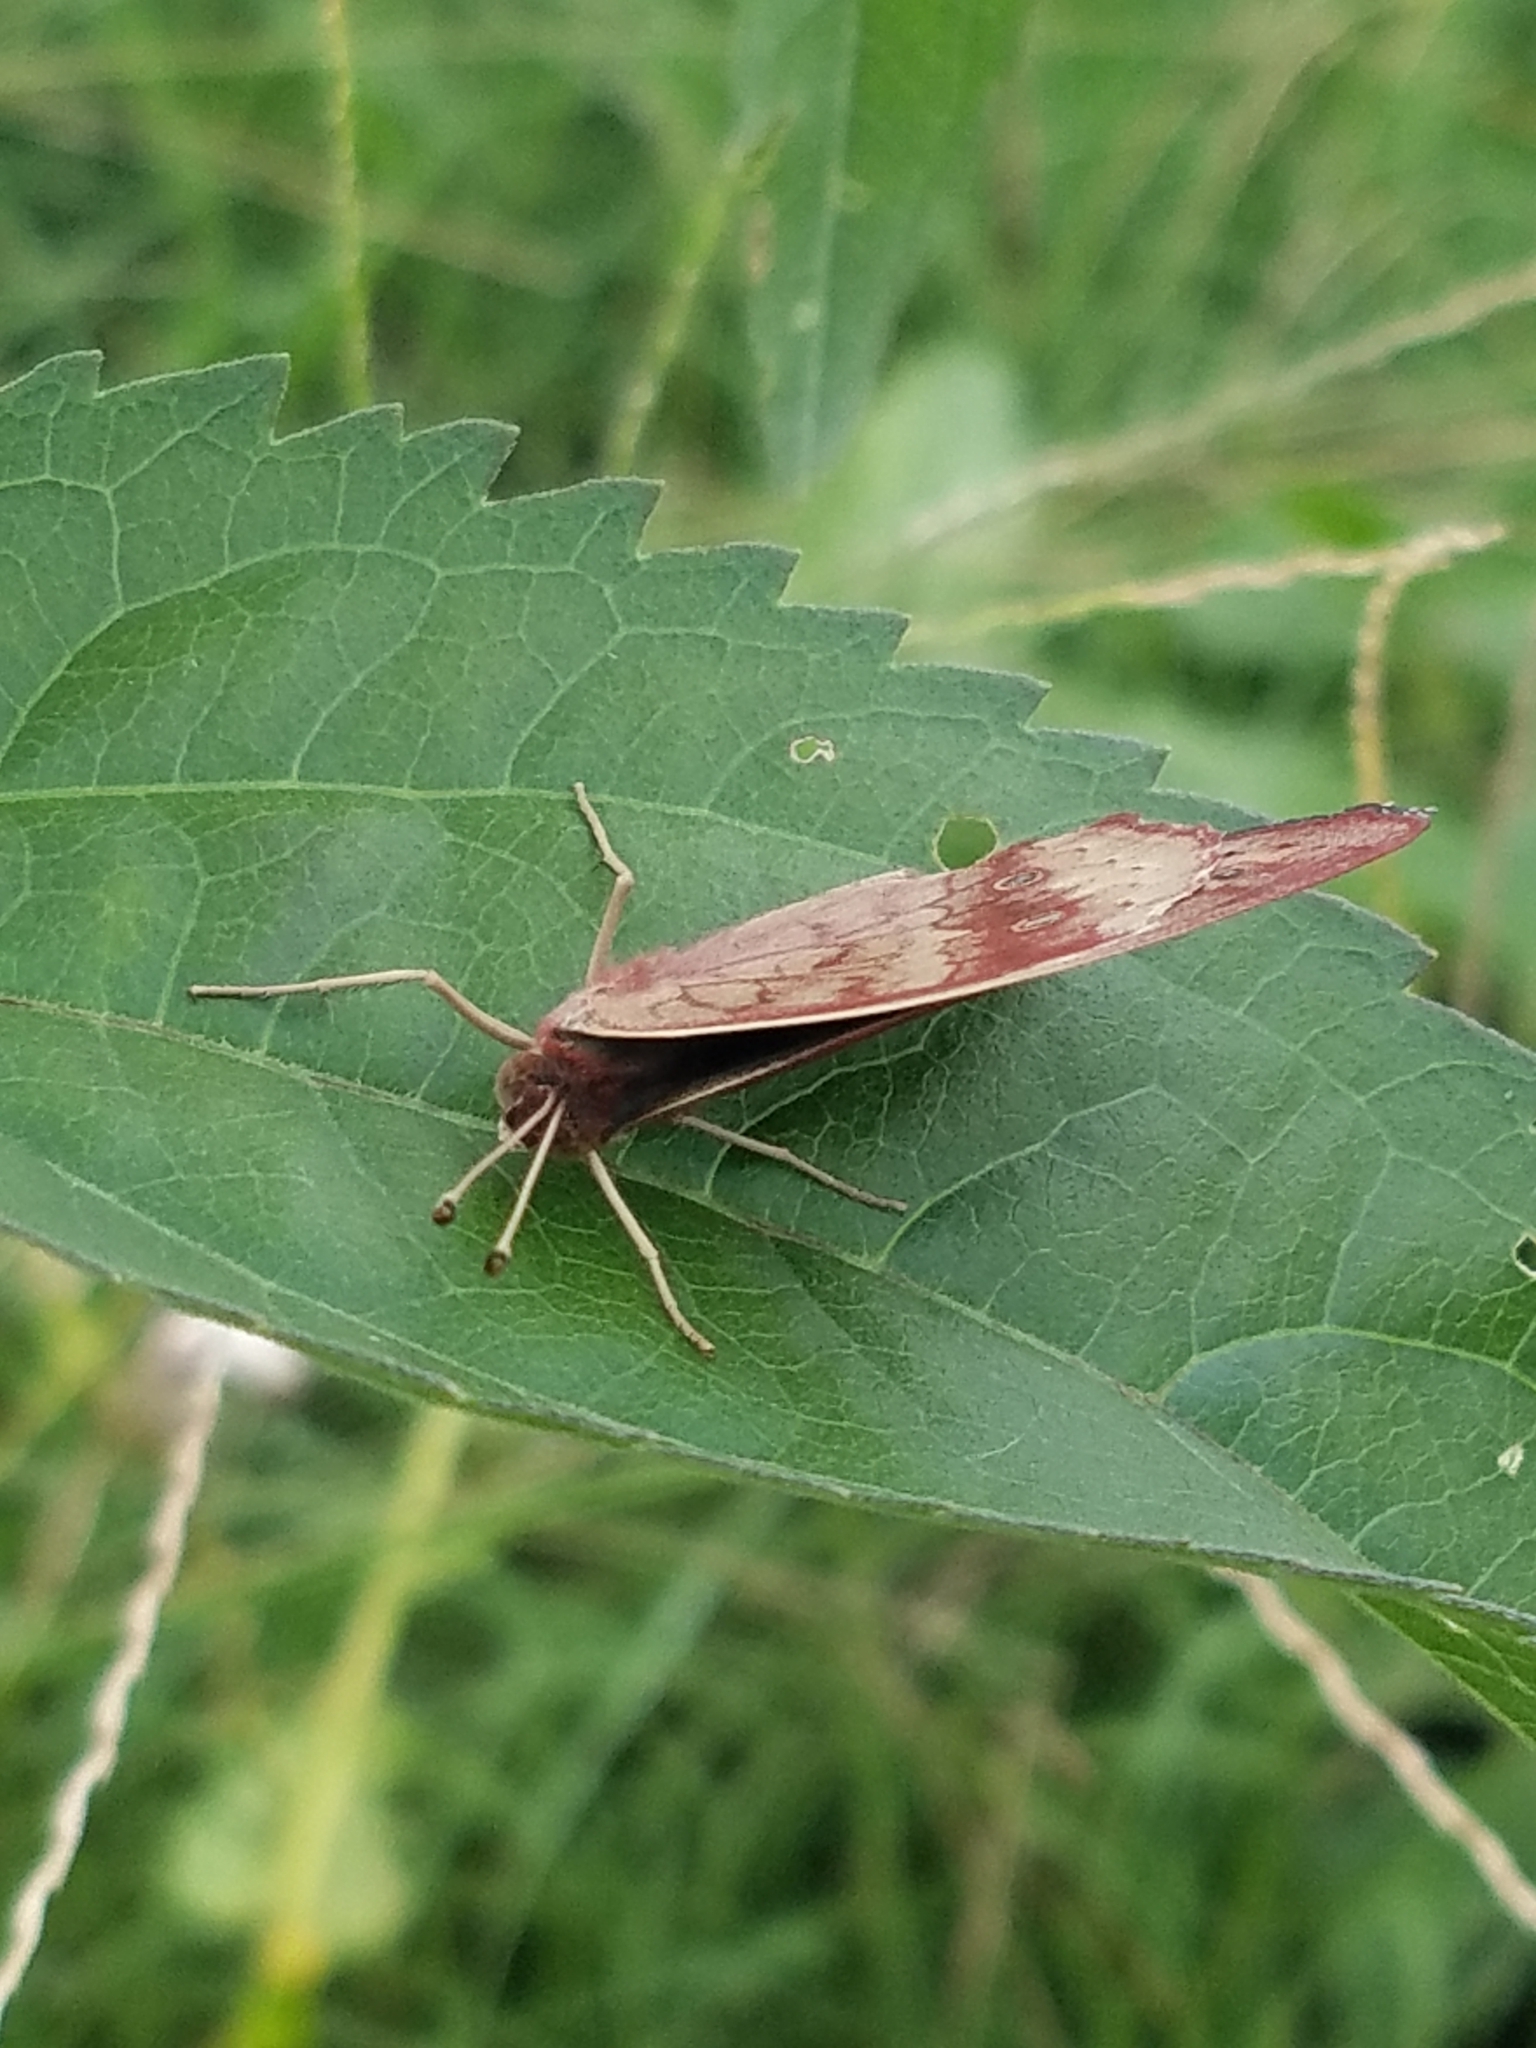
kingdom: Animalia
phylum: Arthropoda
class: Insecta
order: Lepidoptera
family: Nymphalidae
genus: Junonia
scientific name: Junonia coenia
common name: Common buckeye
